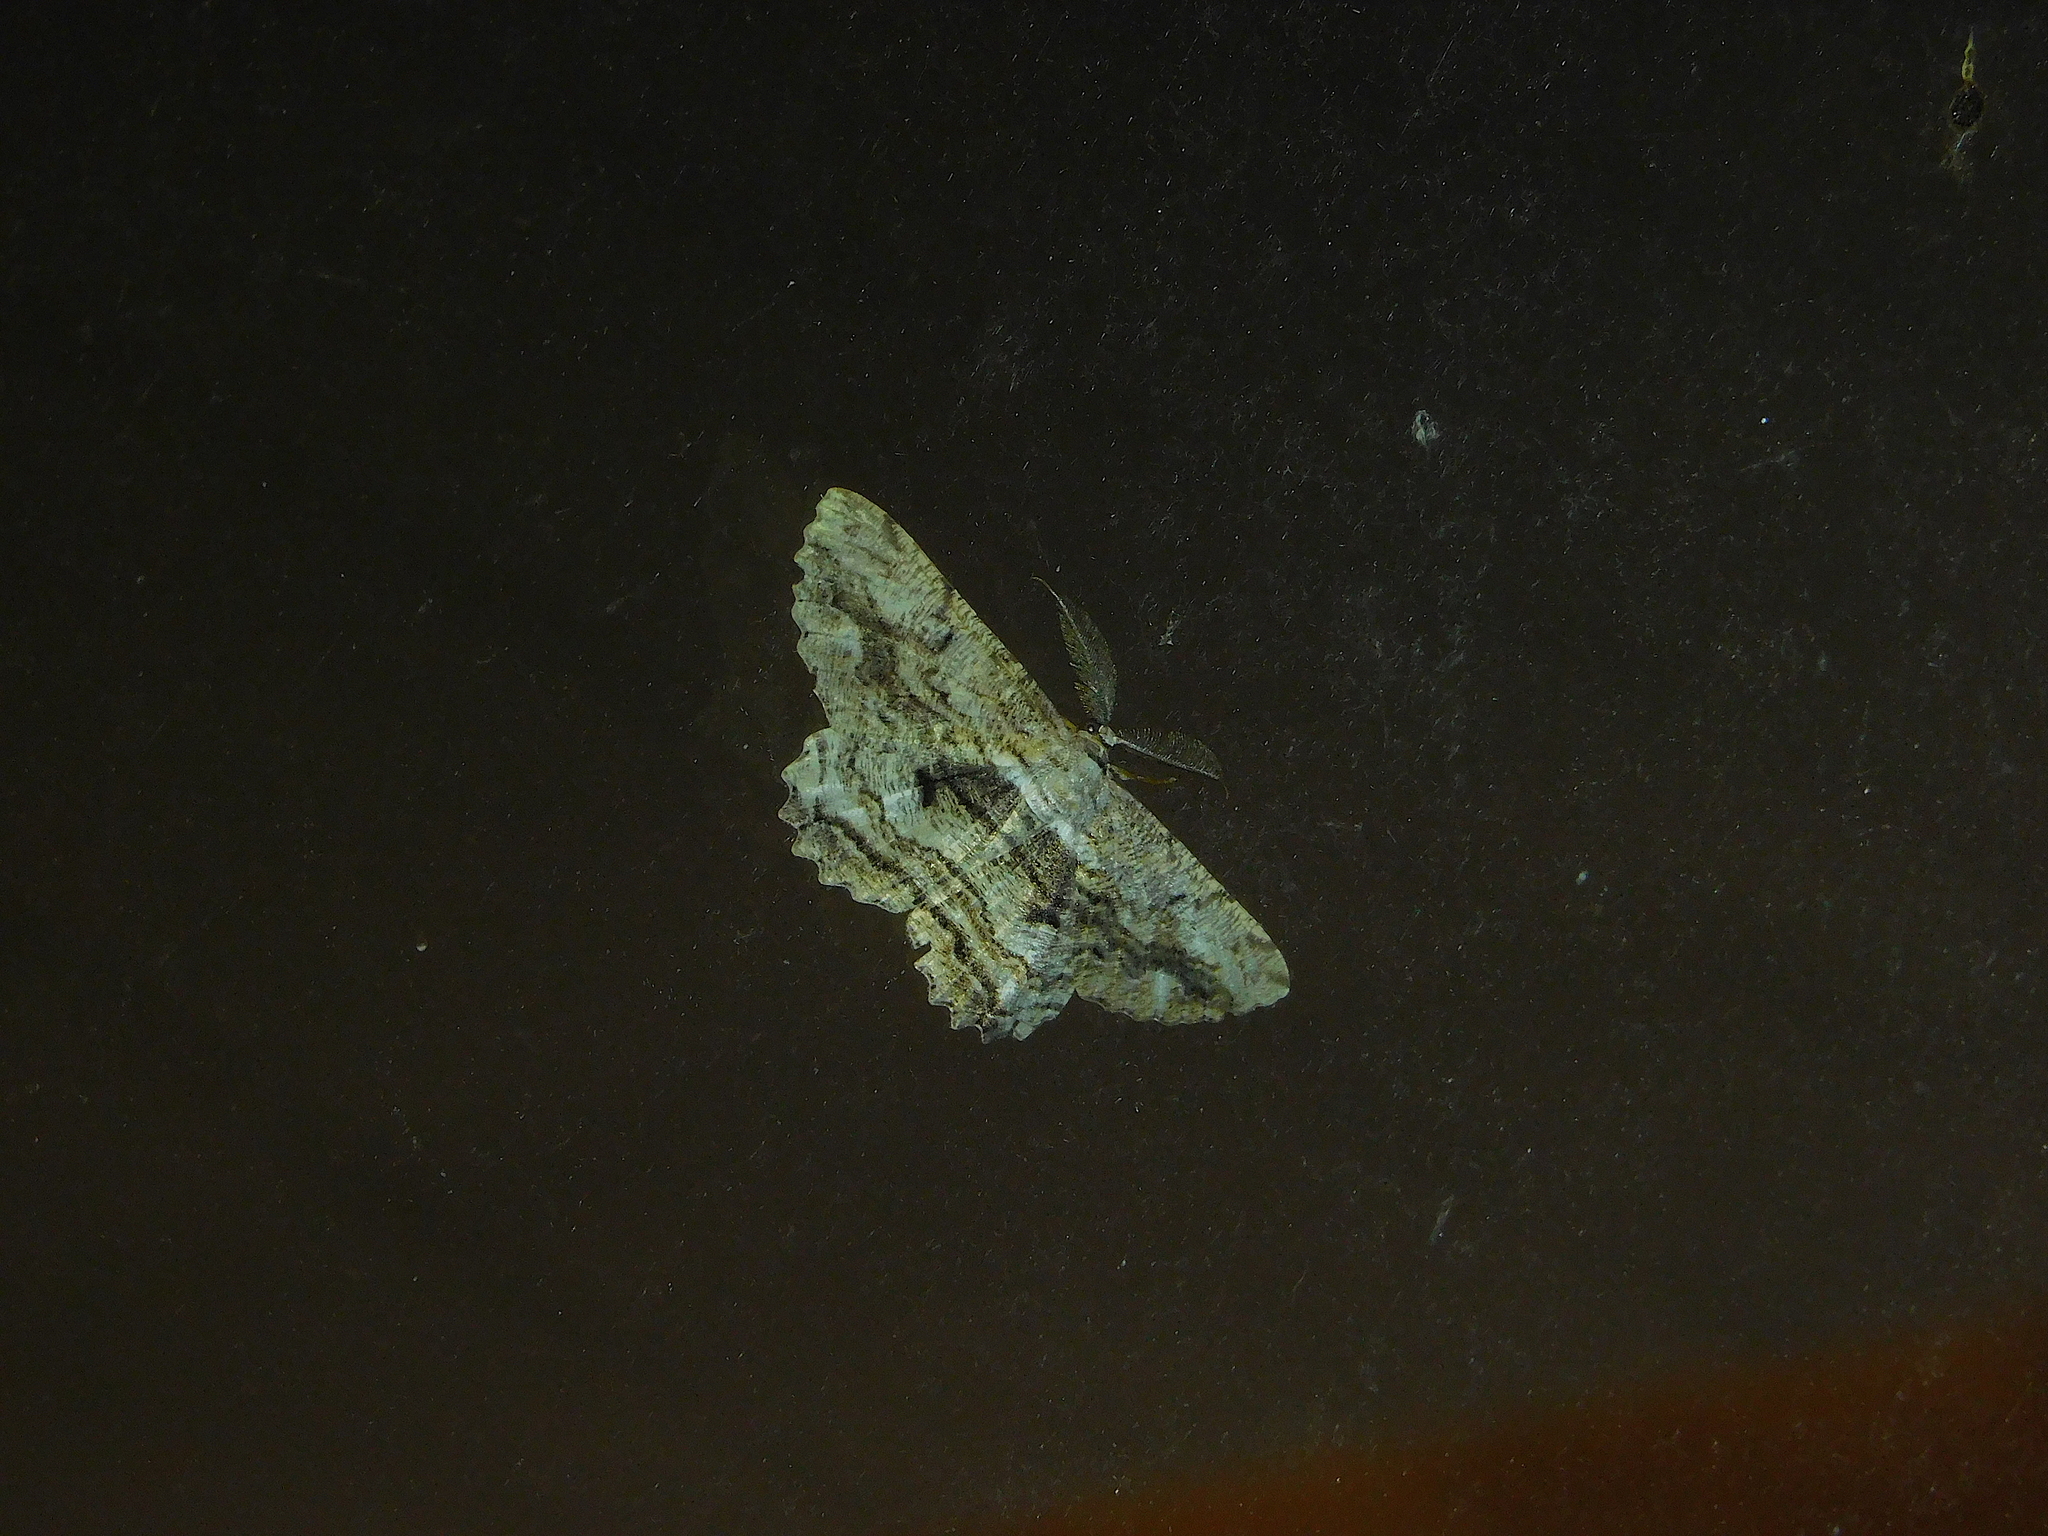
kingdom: Animalia
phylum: Arthropoda
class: Insecta
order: Lepidoptera
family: Geometridae
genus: Scioglyptis
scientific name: Scioglyptis lyciaria
